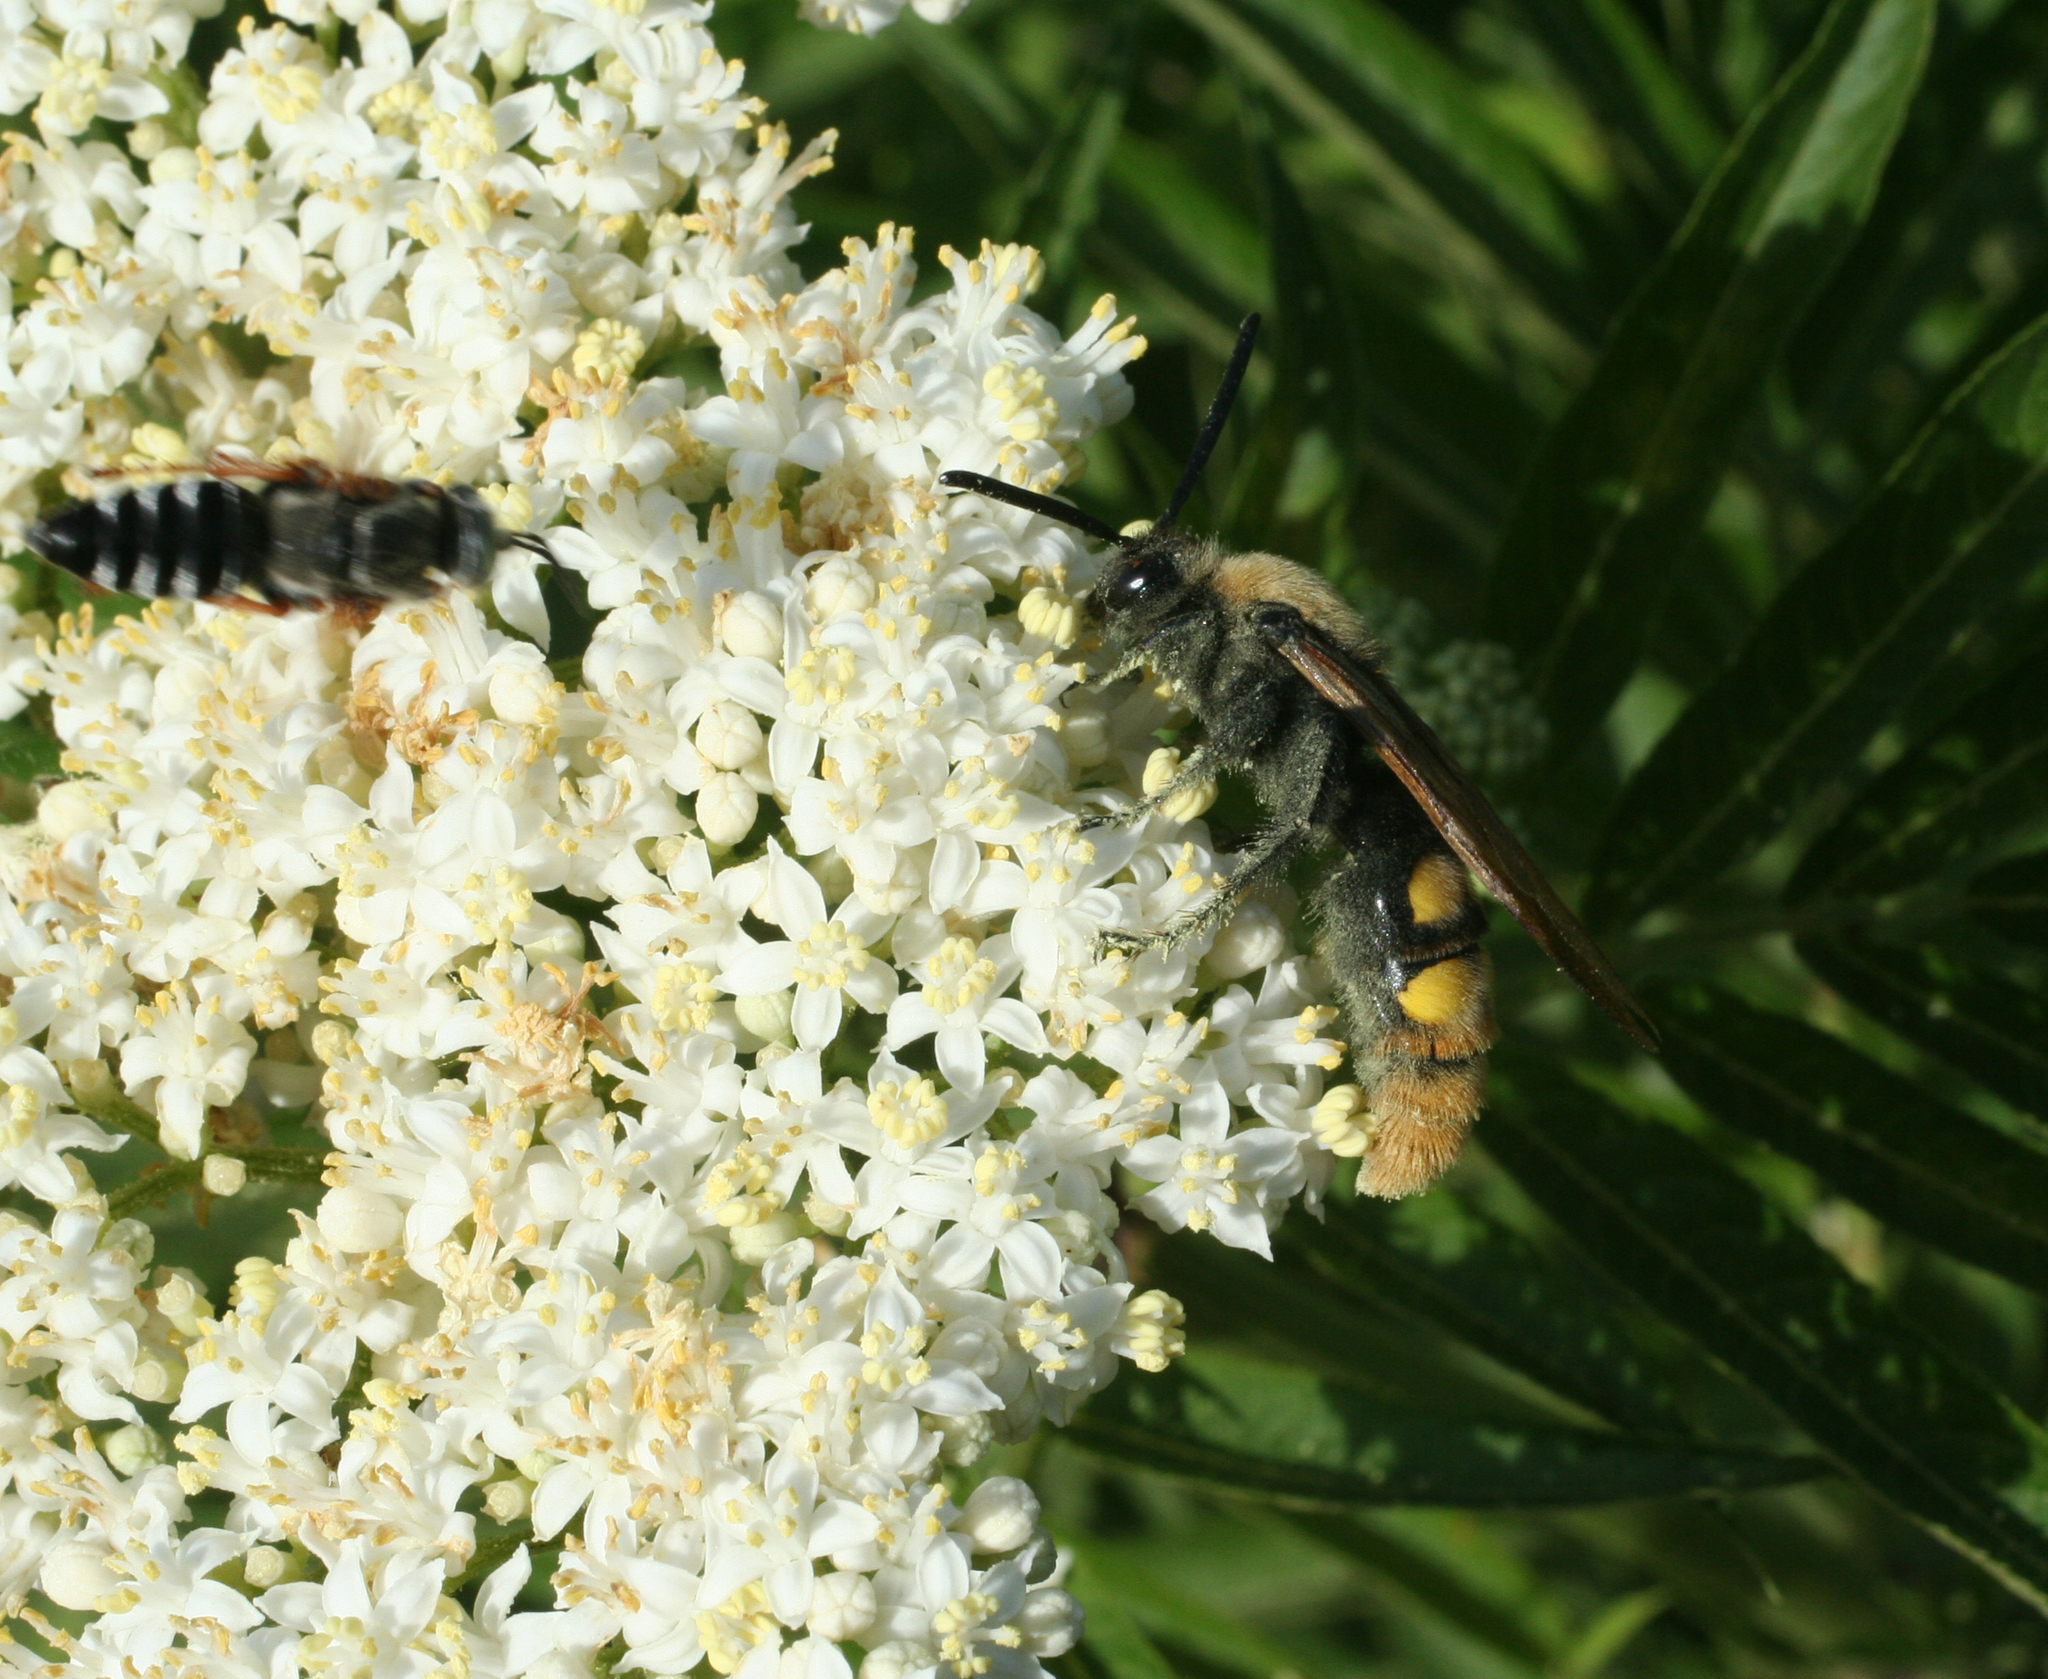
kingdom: Animalia
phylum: Arthropoda
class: Insecta
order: Hymenoptera
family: Scoliidae
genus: Megascolia
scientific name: Megascolia maculata
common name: Mammoth wasp
